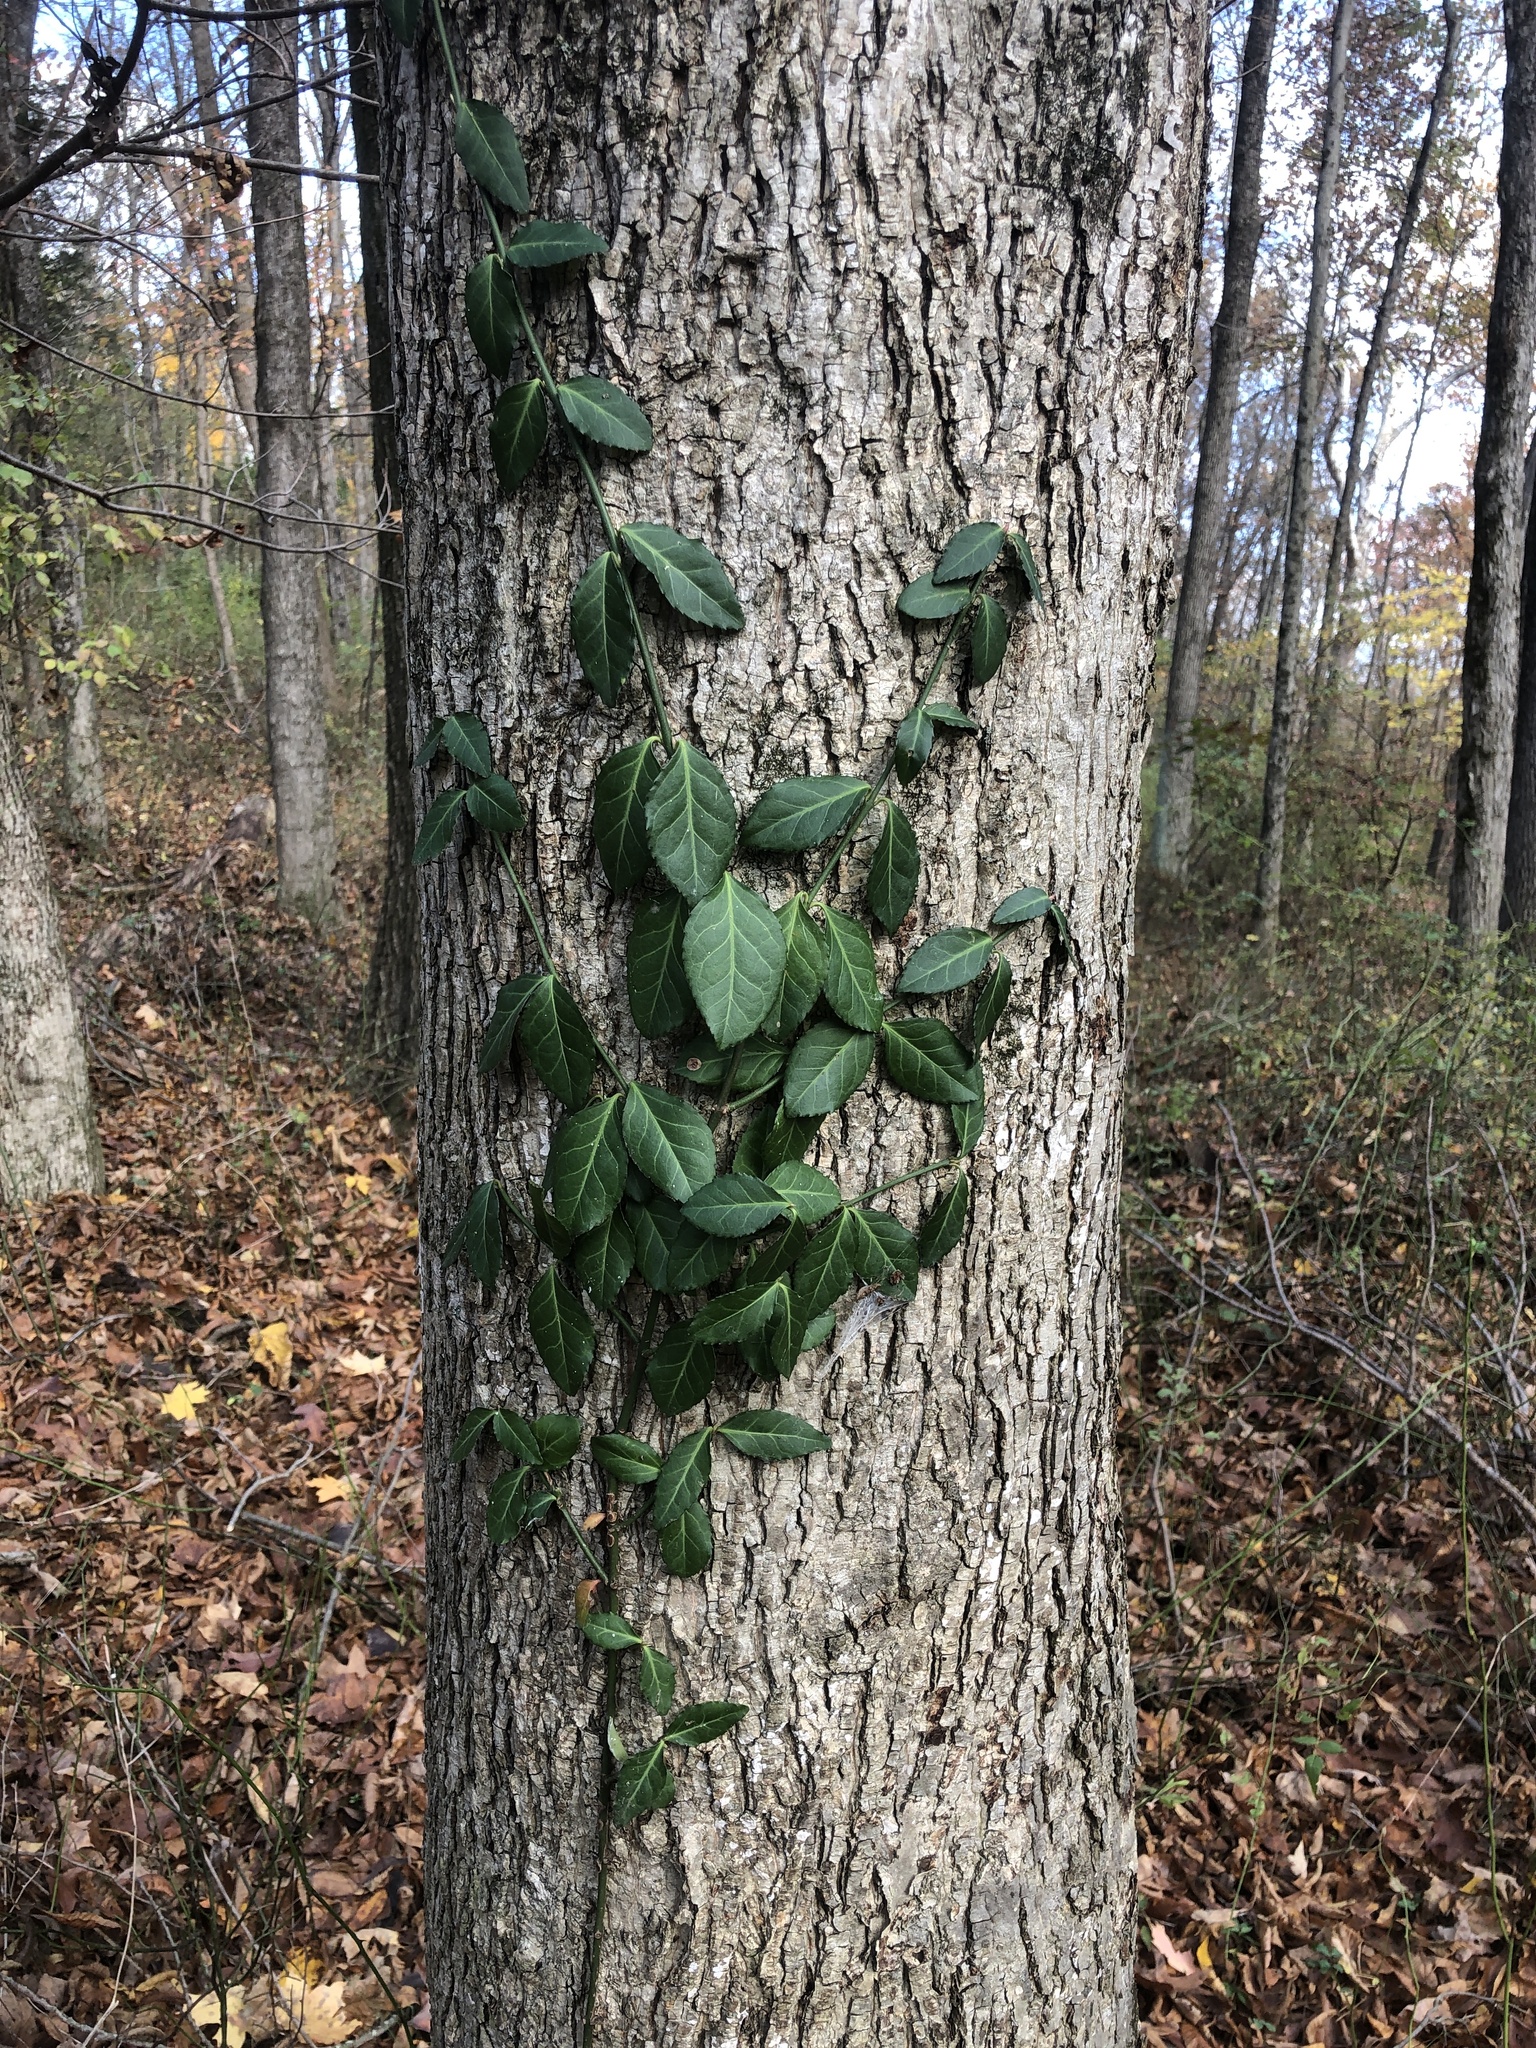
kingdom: Plantae
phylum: Tracheophyta
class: Magnoliopsida
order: Celastrales
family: Celastraceae
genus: Euonymus
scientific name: Euonymus fortunei
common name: Climbing euonymus
